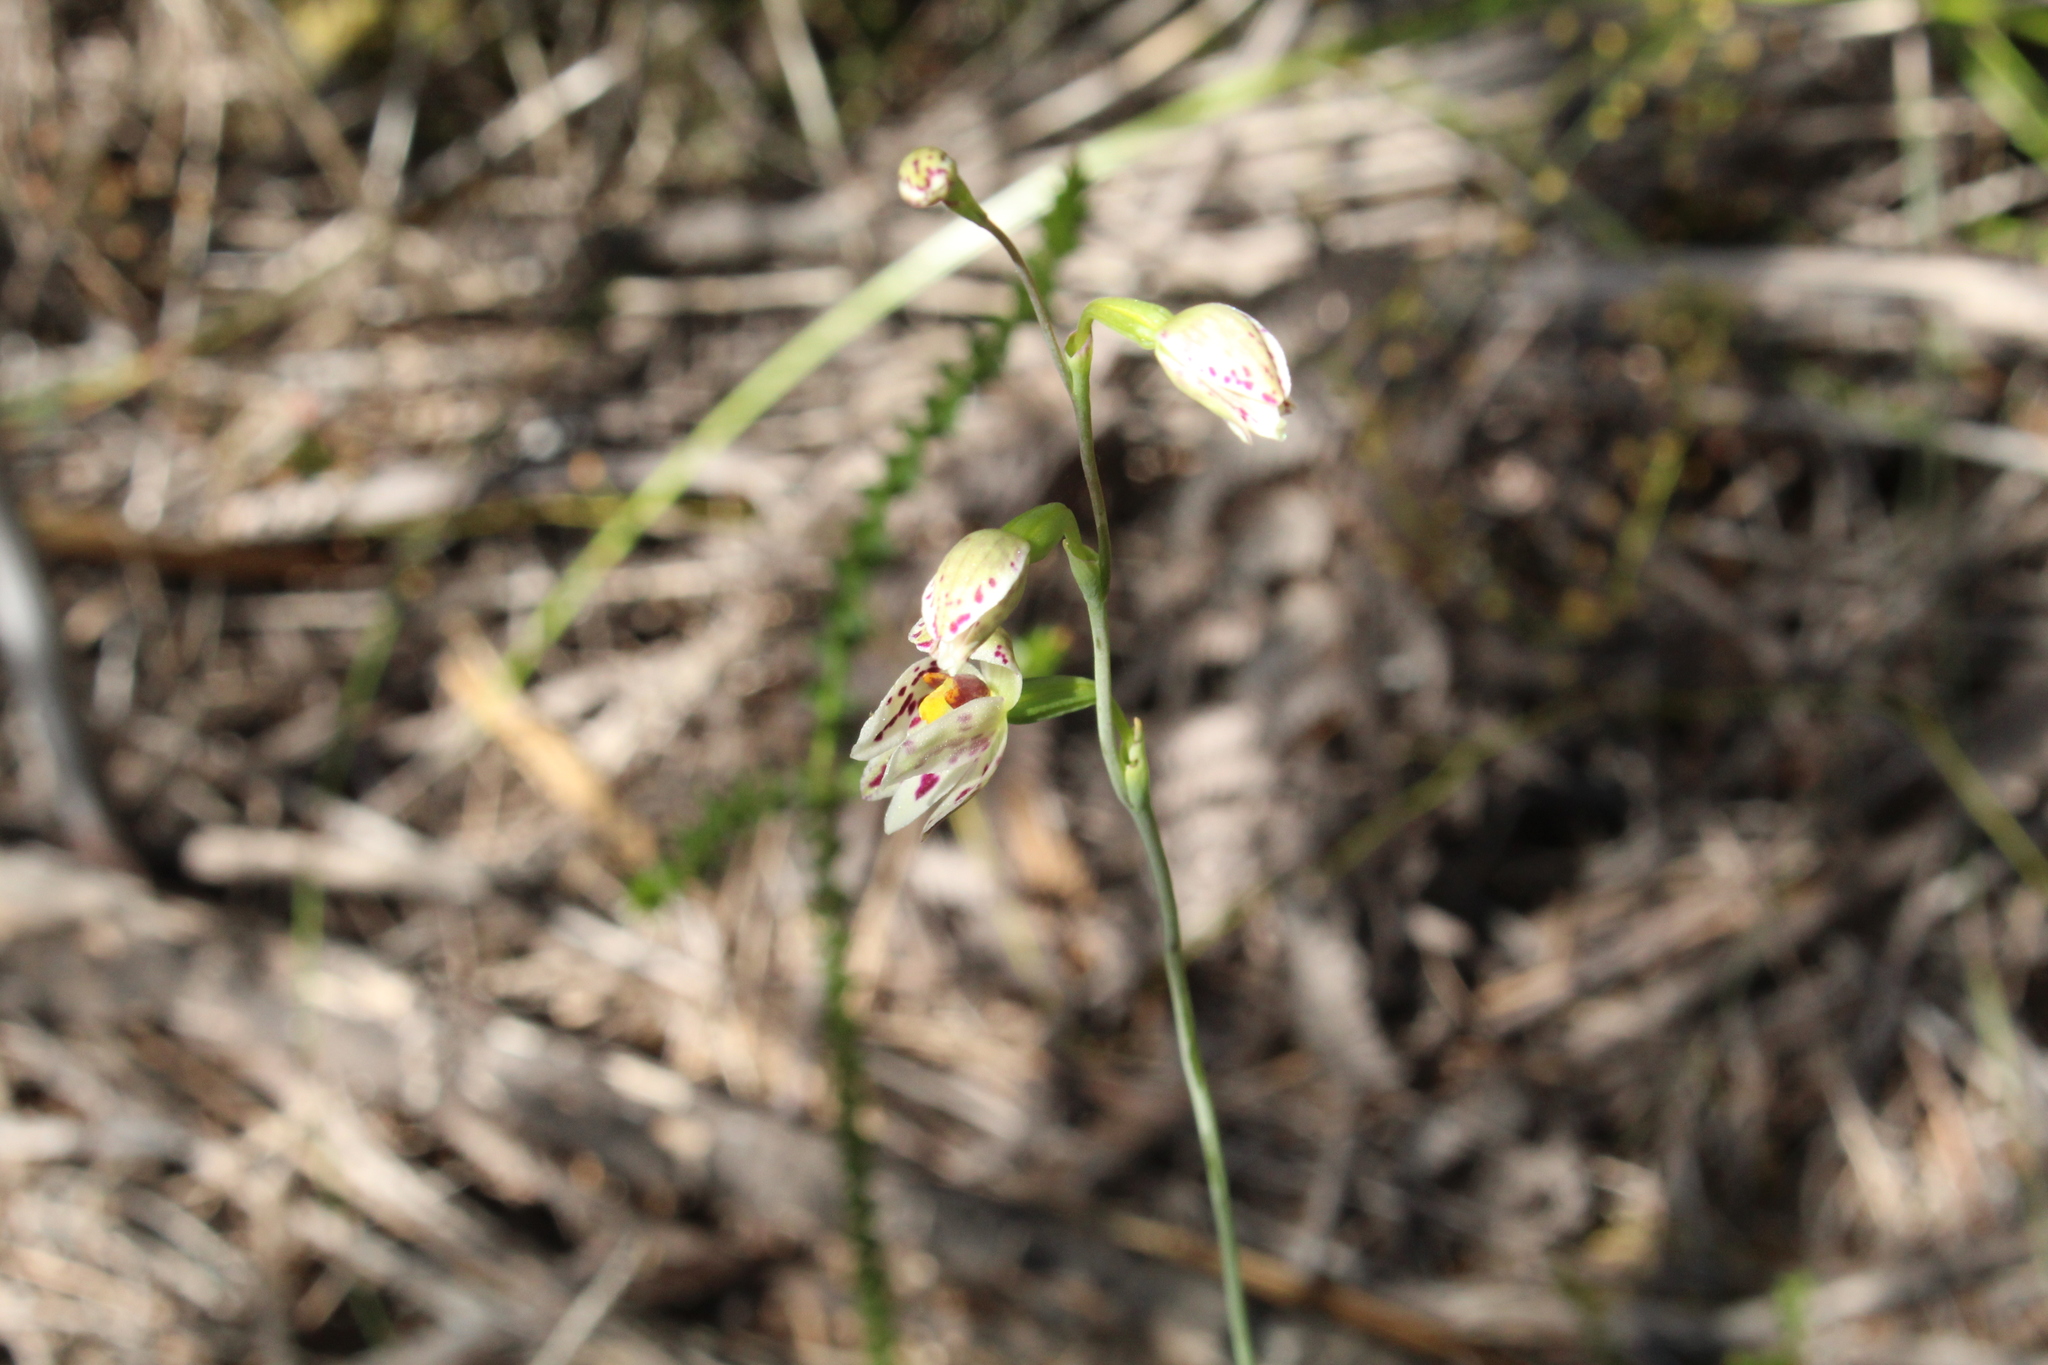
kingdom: Plantae
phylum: Tracheophyta
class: Liliopsida
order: Asparagales
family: Orchidaceae
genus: Thelymitra
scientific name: Thelymitra cucullata
